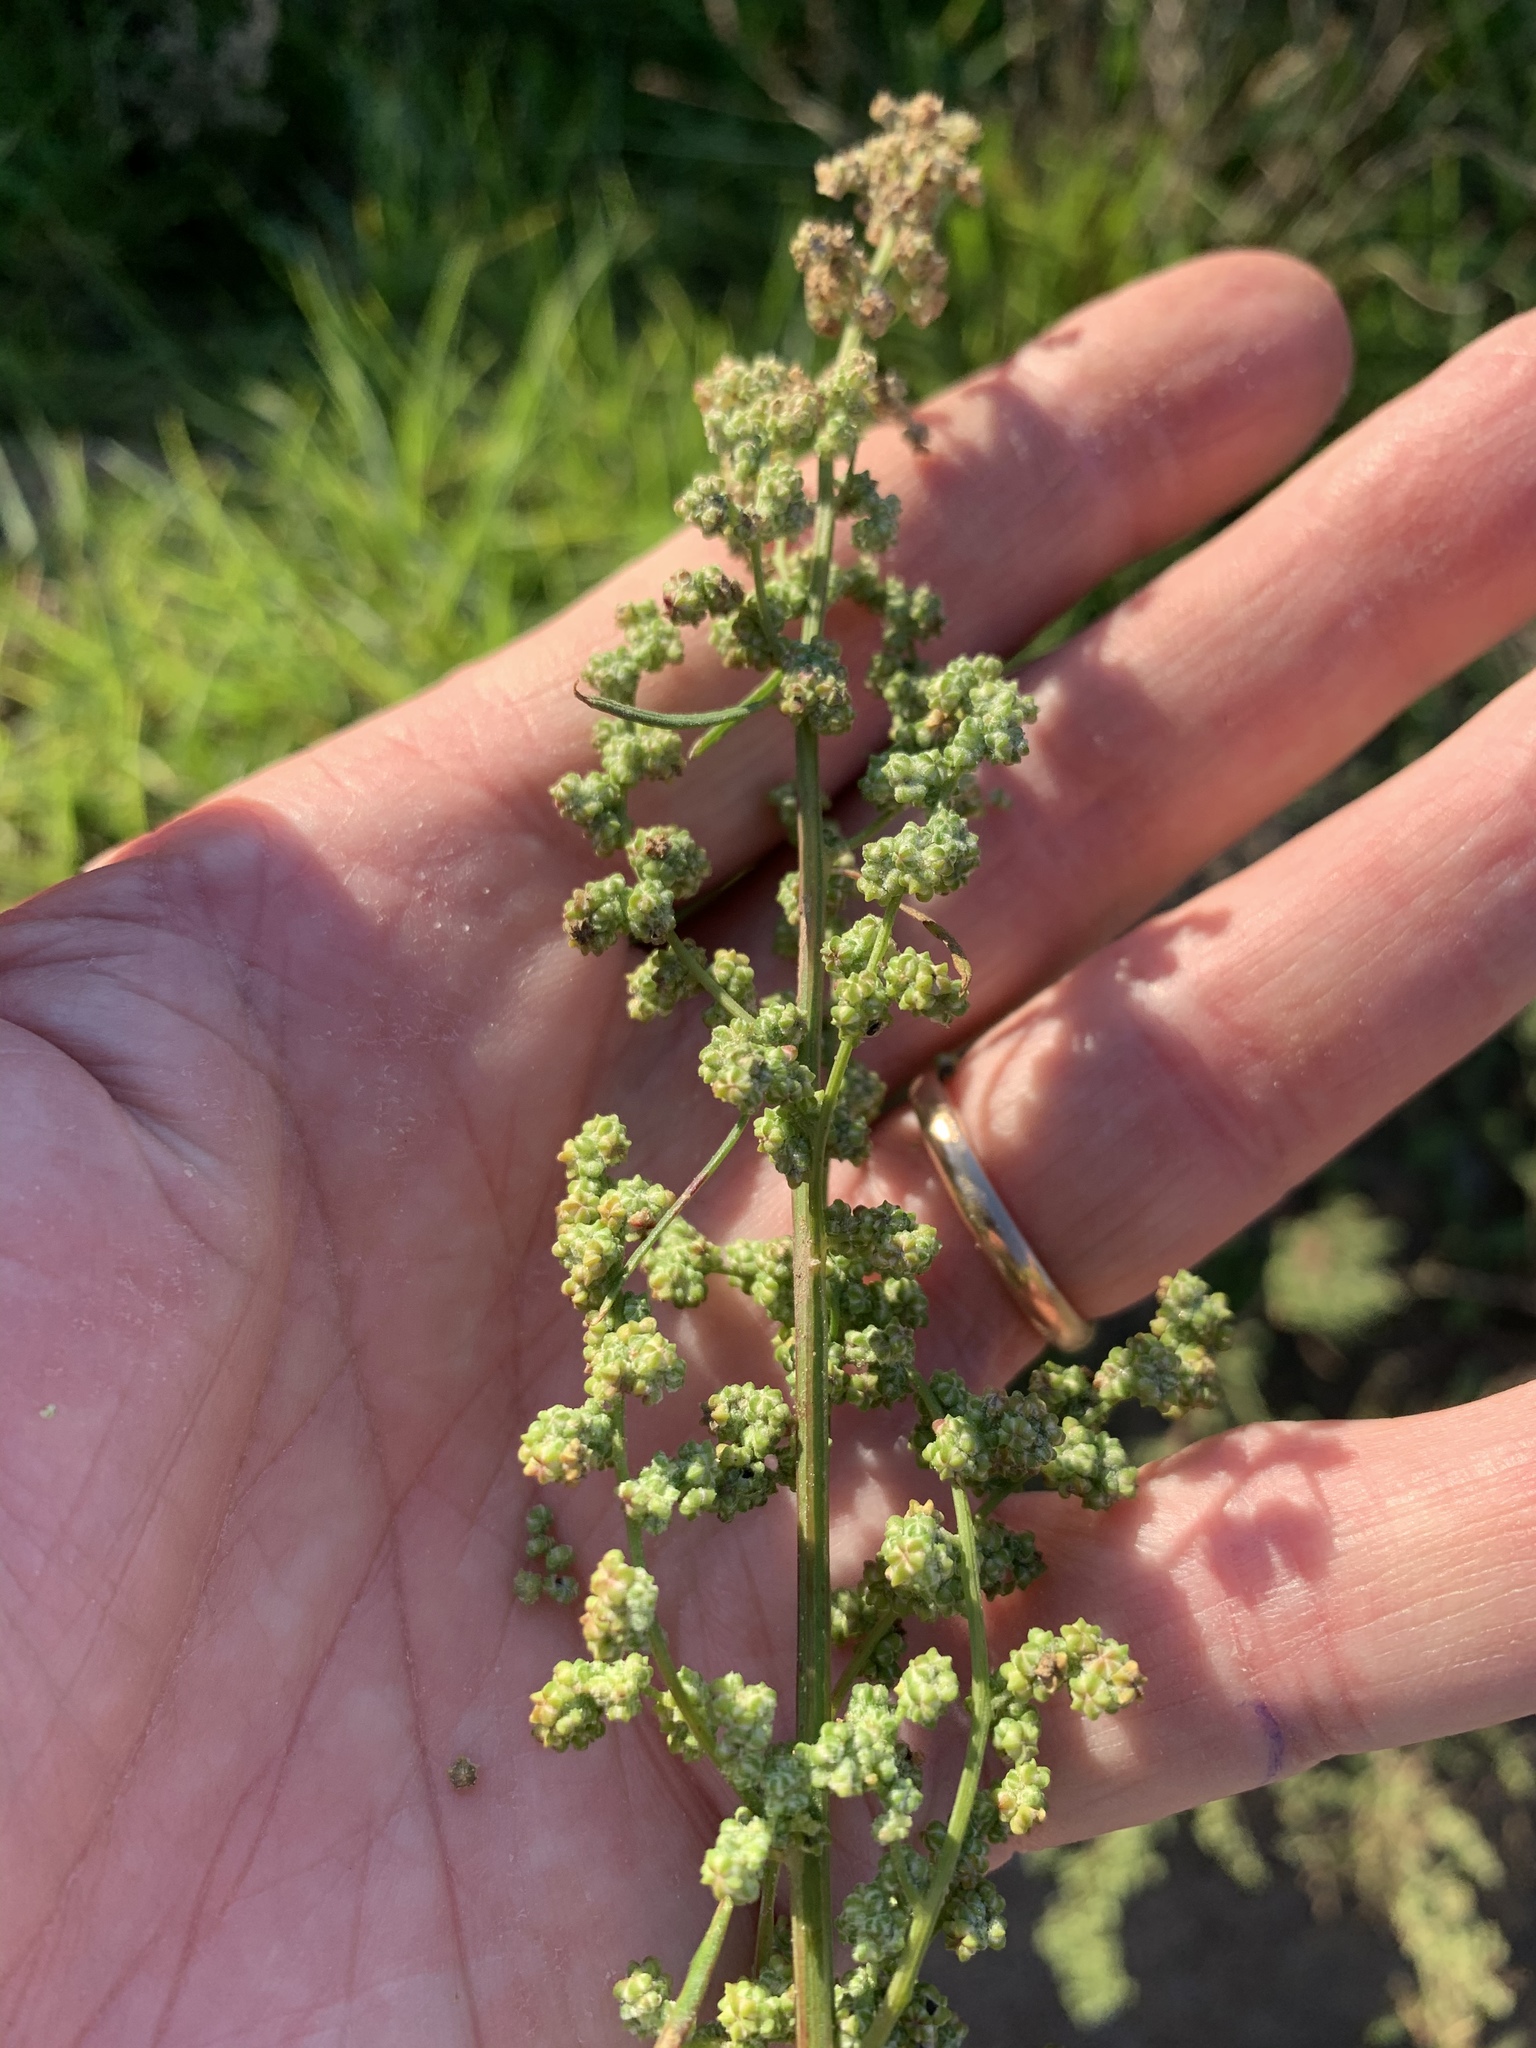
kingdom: Plantae
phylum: Tracheophyta
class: Magnoliopsida
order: Caryophyllales
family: Amaranthaceae
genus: Chenopodium
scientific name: Chenopodium album
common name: Fat-hen
